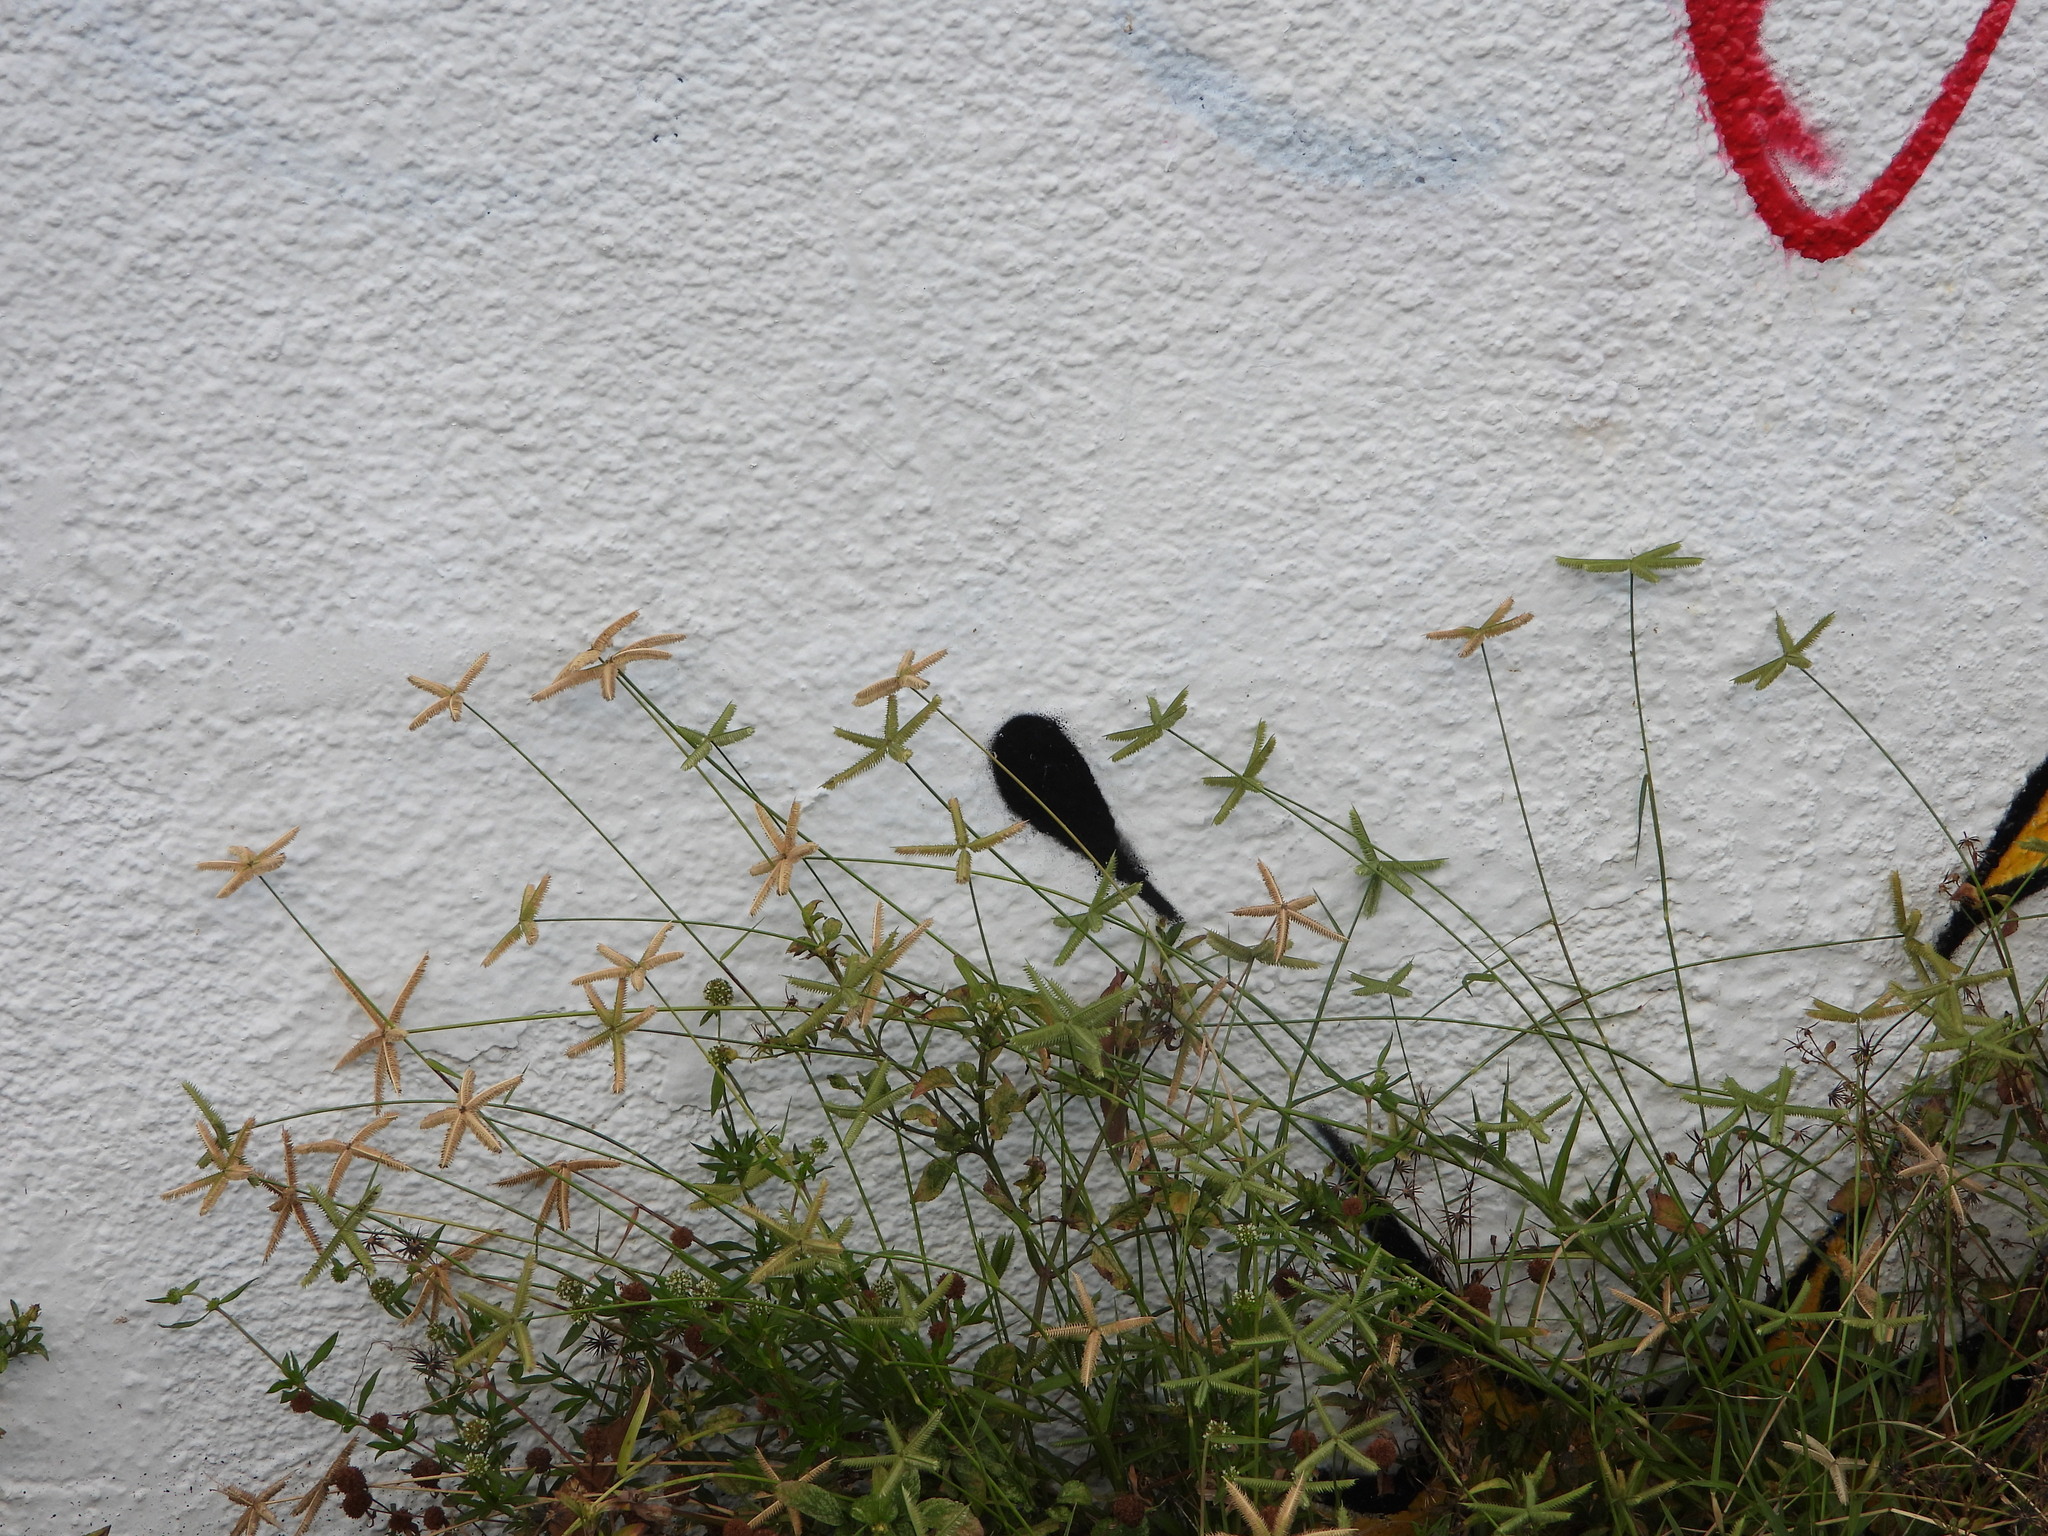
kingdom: Plantae
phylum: Tracheophyta
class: Liliopsida
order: Poales
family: Poaceae
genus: Dactyloctenium
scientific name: Dactyloctenium aegyptium
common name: Egyptian grass
